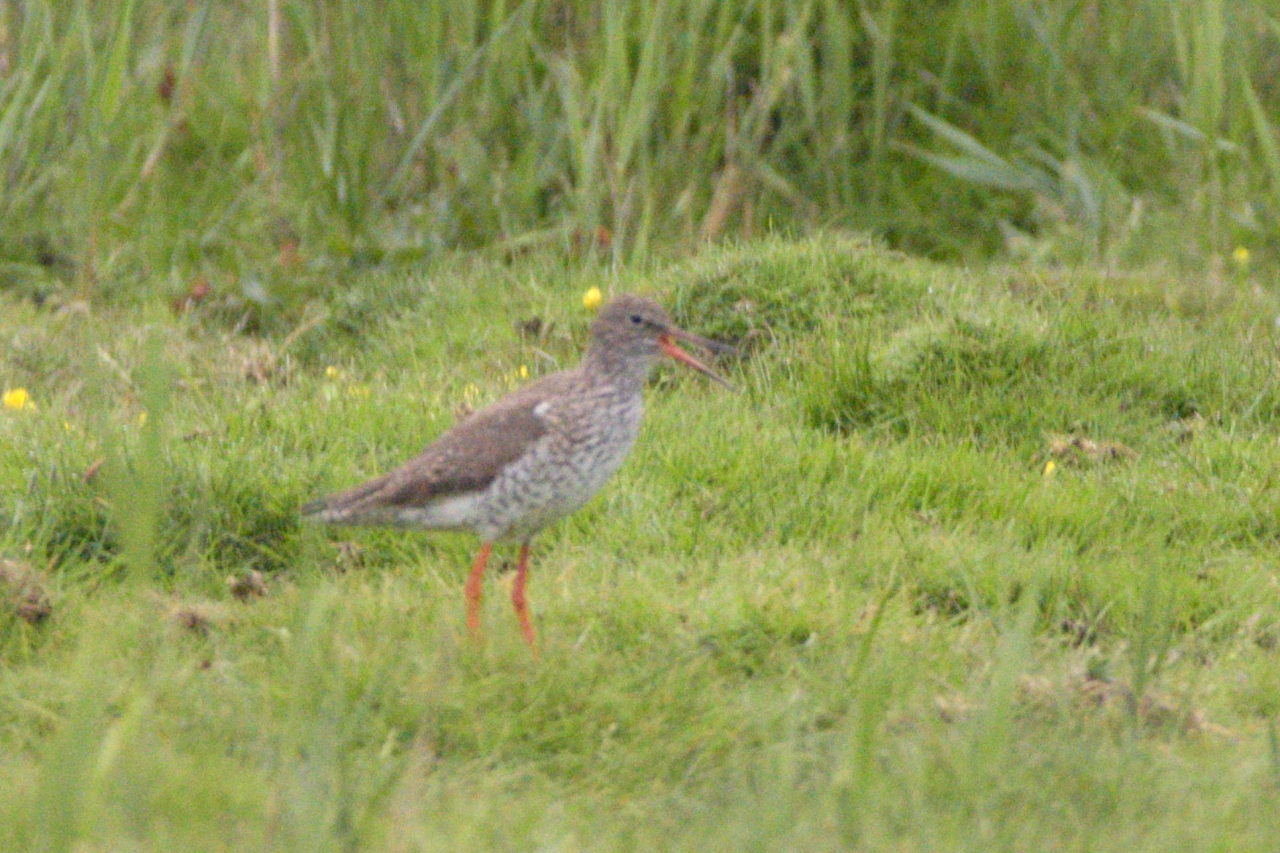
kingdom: Animalia
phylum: Chordata
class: Aves
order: Charadriiformes
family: Scolopacidae
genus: Tringa
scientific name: Tringa totanus
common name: Common redshank
